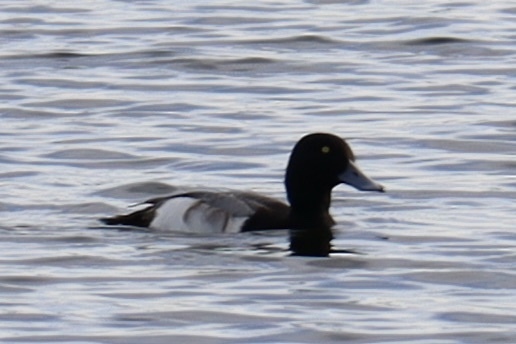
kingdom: Animalia
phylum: Chordata
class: Aves
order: Anseriformes
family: Anatidae
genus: Aythya
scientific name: Aythya marila
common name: Greater scaup
